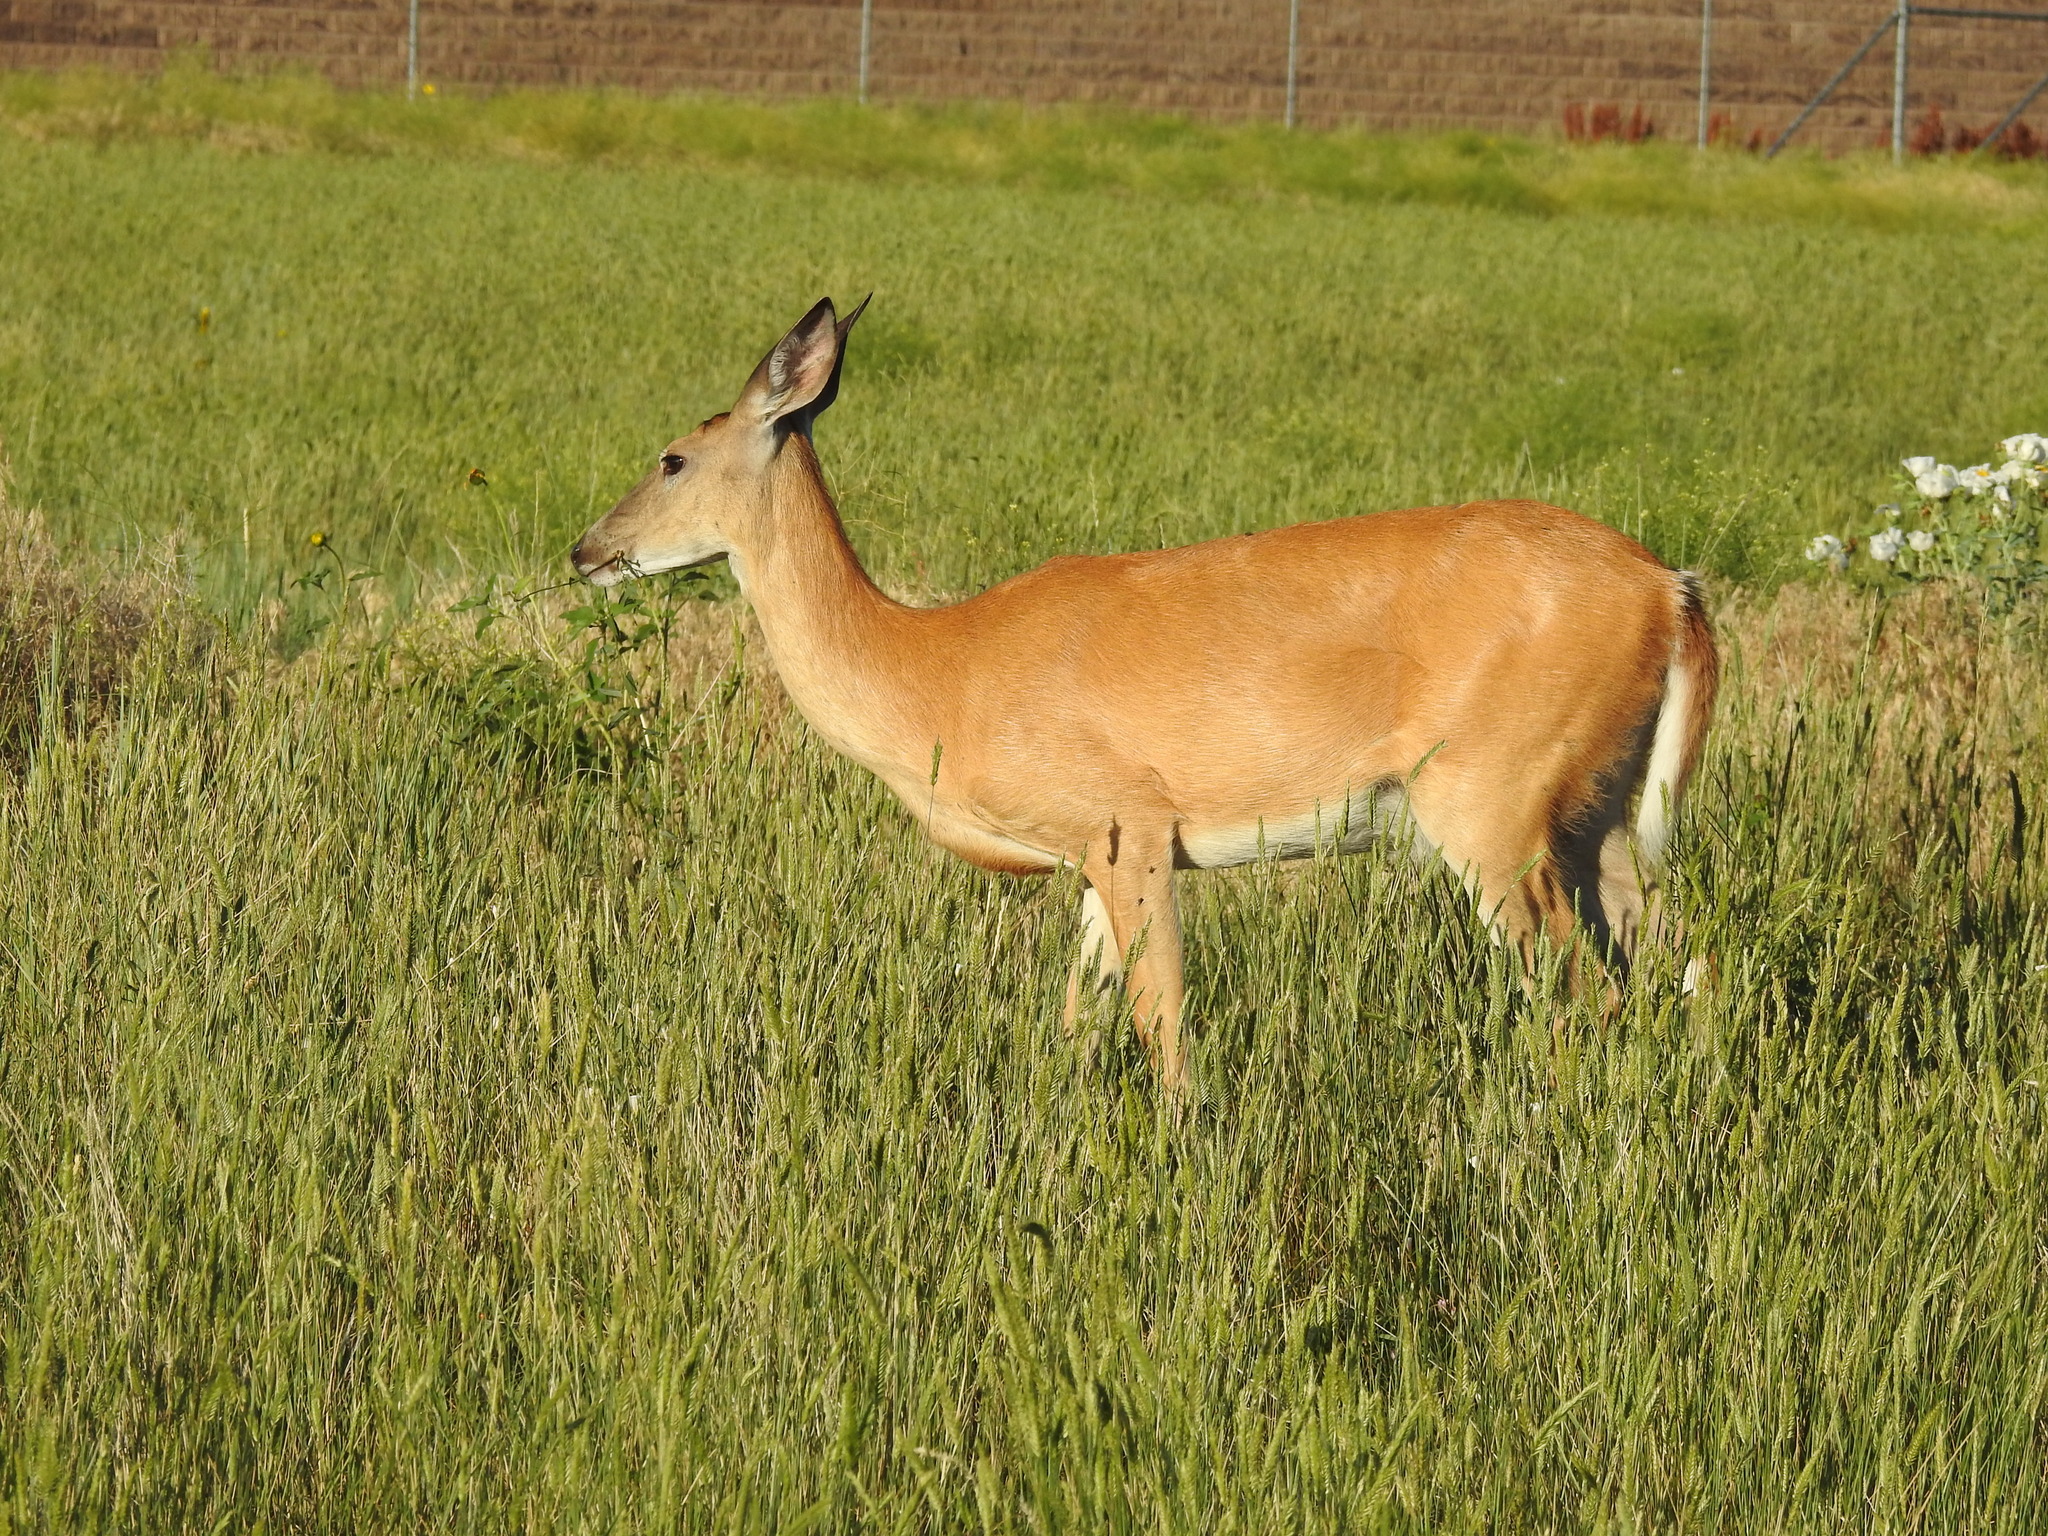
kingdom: Animalia
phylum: Chordata
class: Mammalia
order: Artiodactyla
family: Cervidae
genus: Odocoileus
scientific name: Odocoileus virginianus
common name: White-tailed deer
